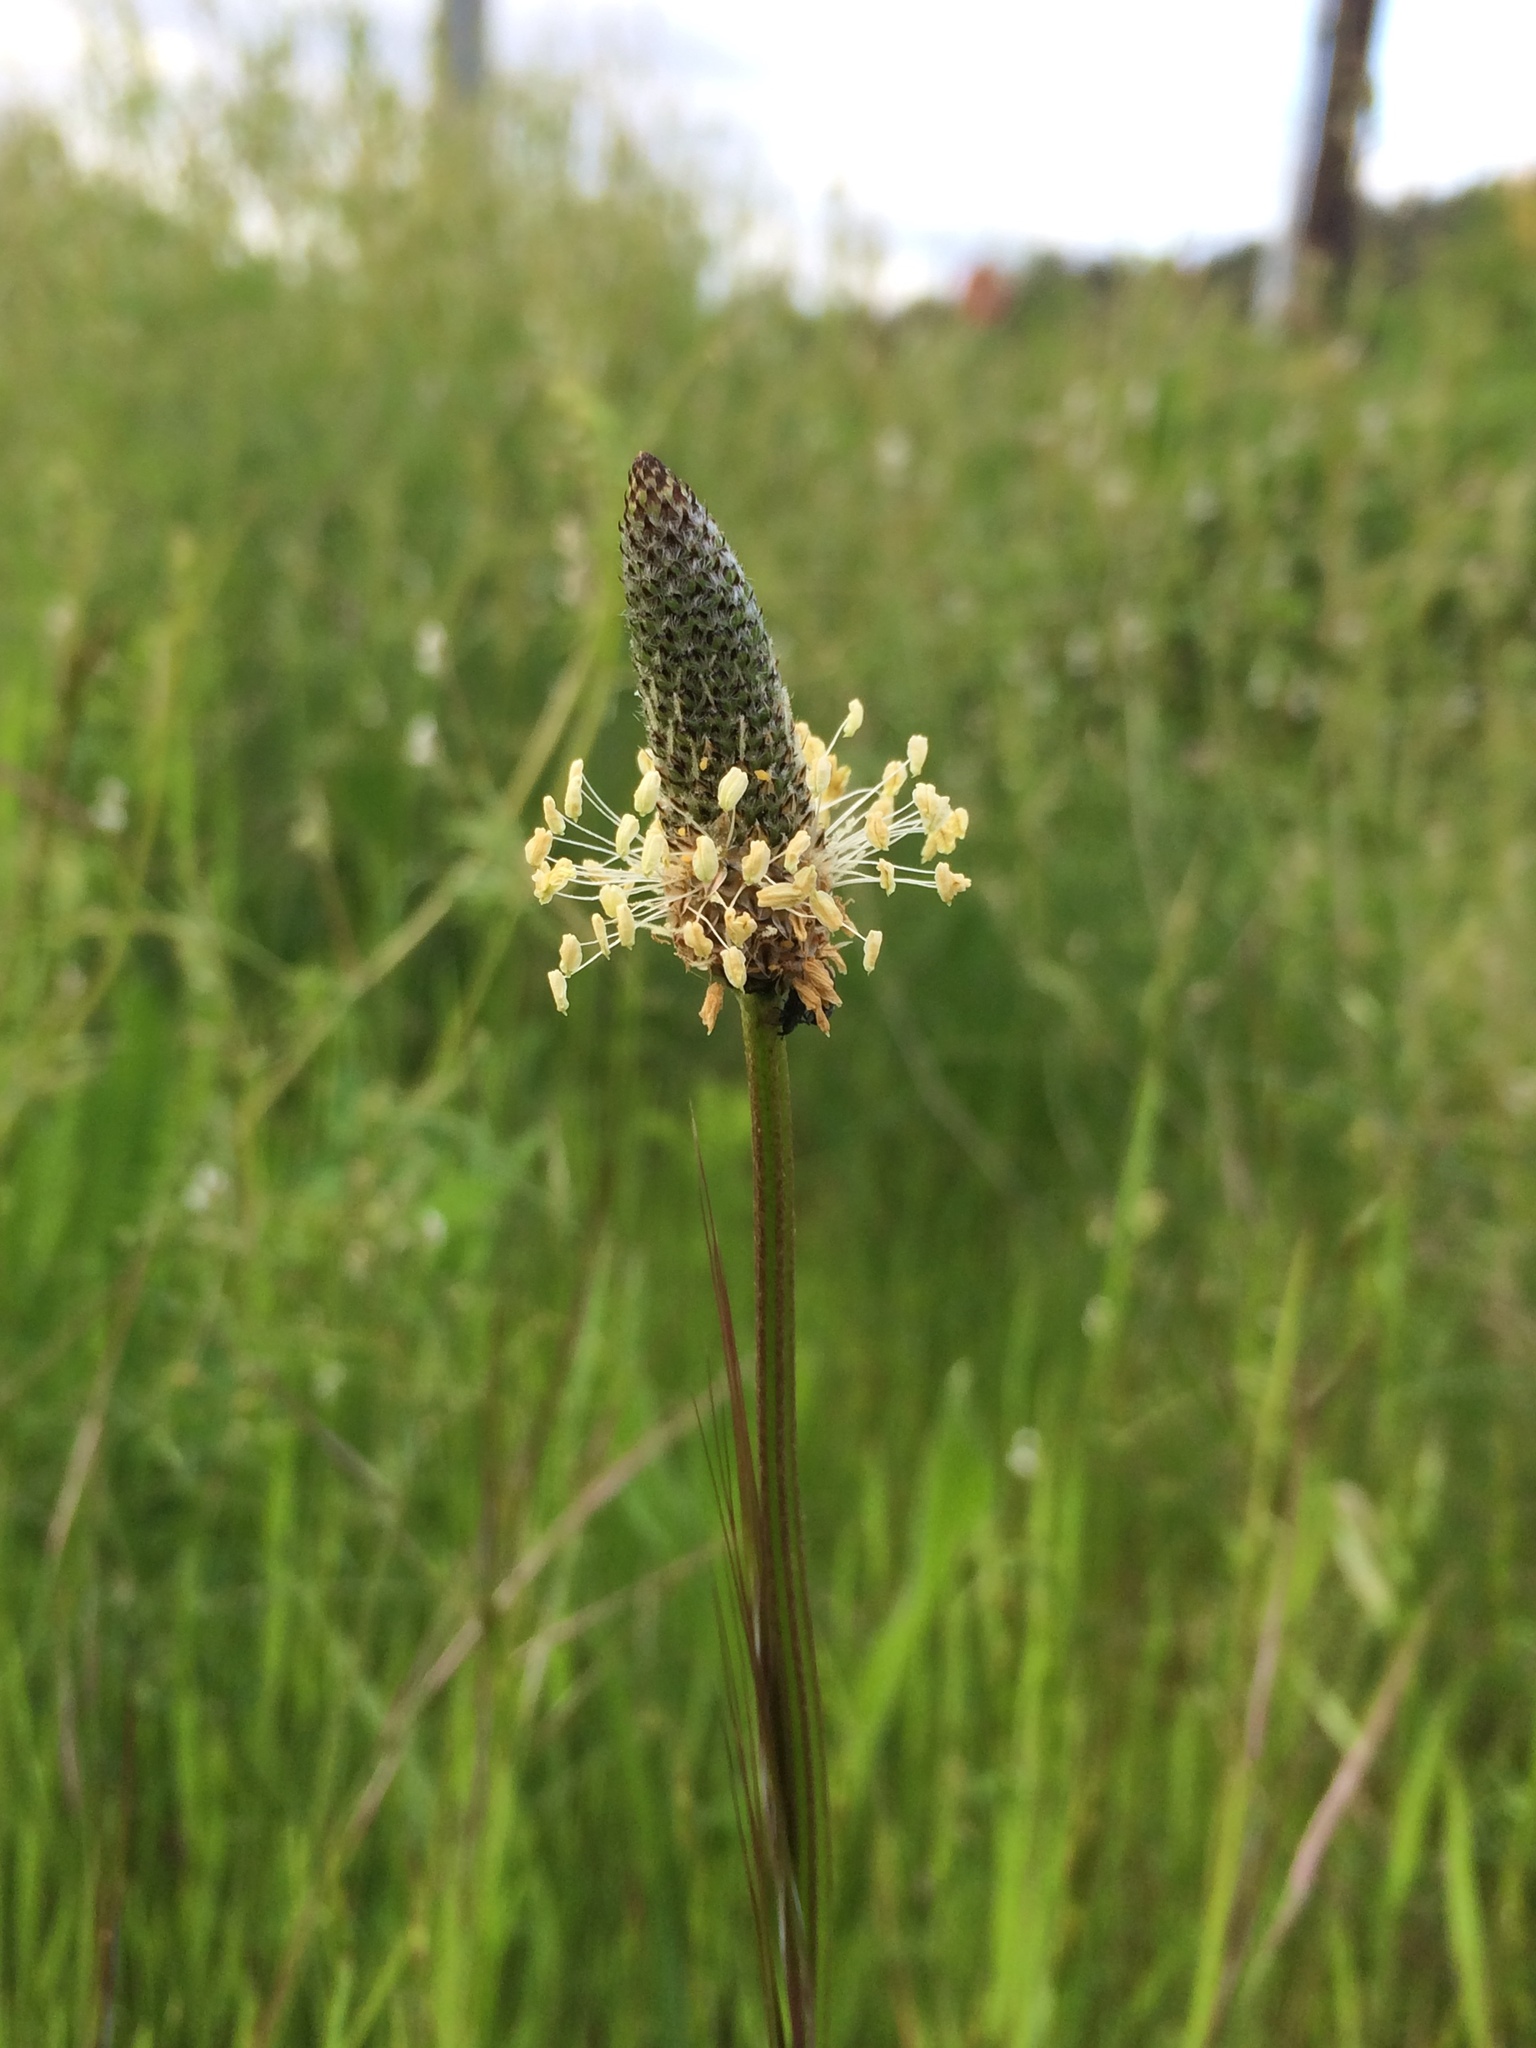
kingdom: Plantae
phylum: Tracheophyta
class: Magnoliopsida
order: Lamiales
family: Plantaginaceae
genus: Plantago
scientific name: Plantago lanceolata
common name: Ribwort plantain
